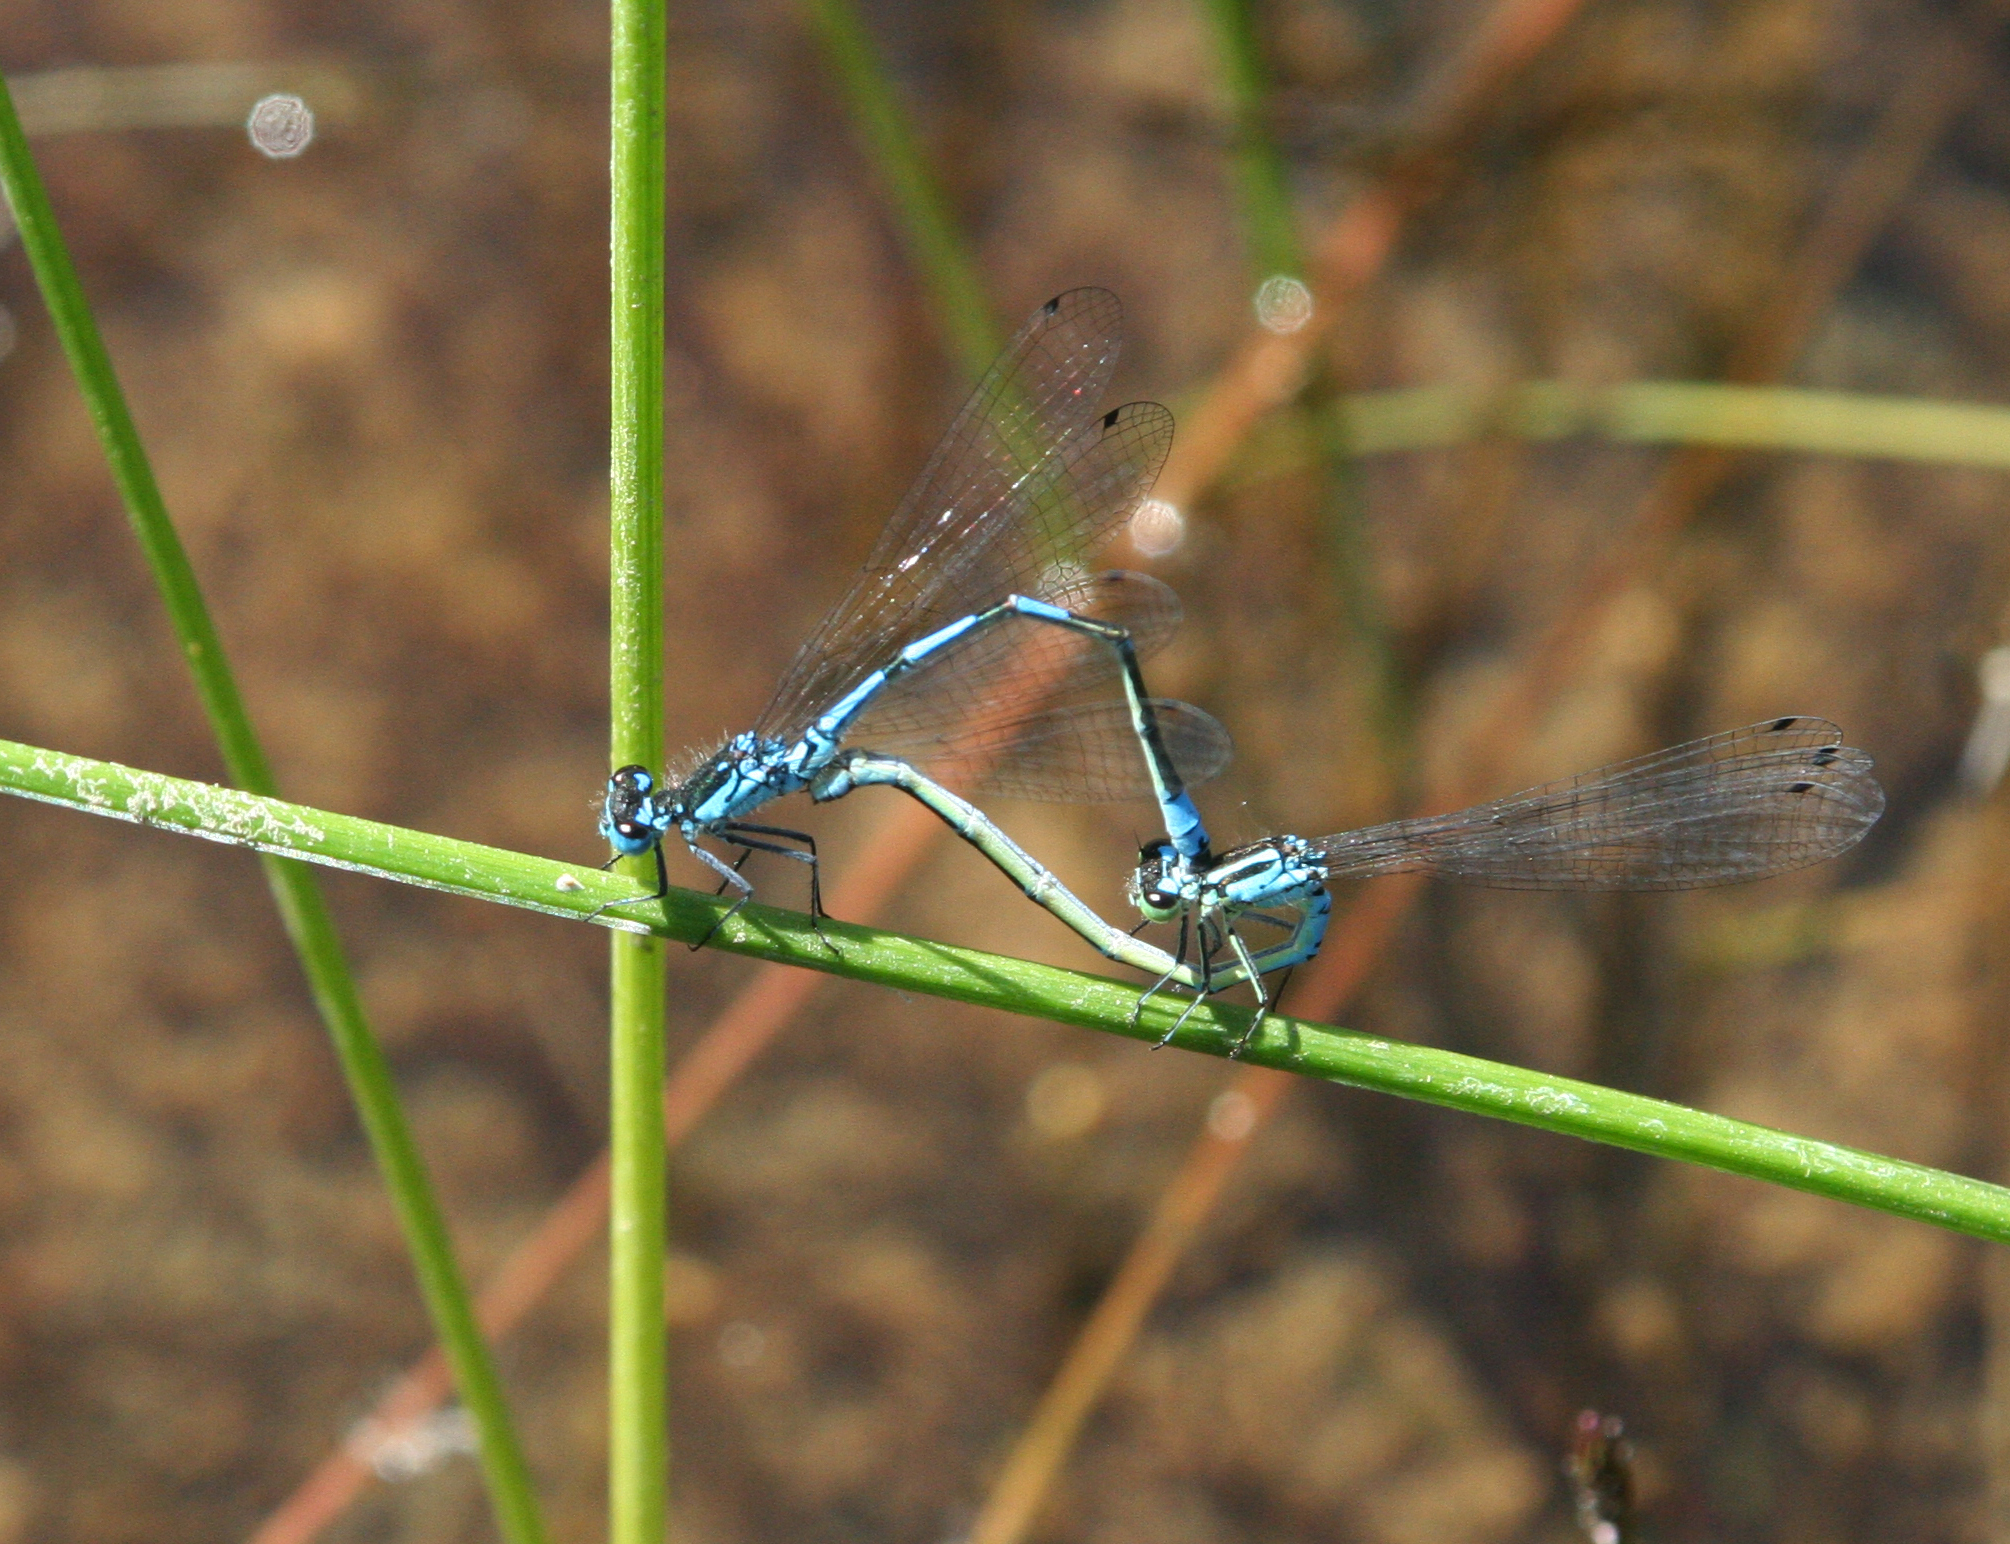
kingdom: Animalia
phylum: Arthropoda
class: Insecta
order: Odonata
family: Coenagrionidae
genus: Coenagrion
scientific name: Coenagrion persicum
